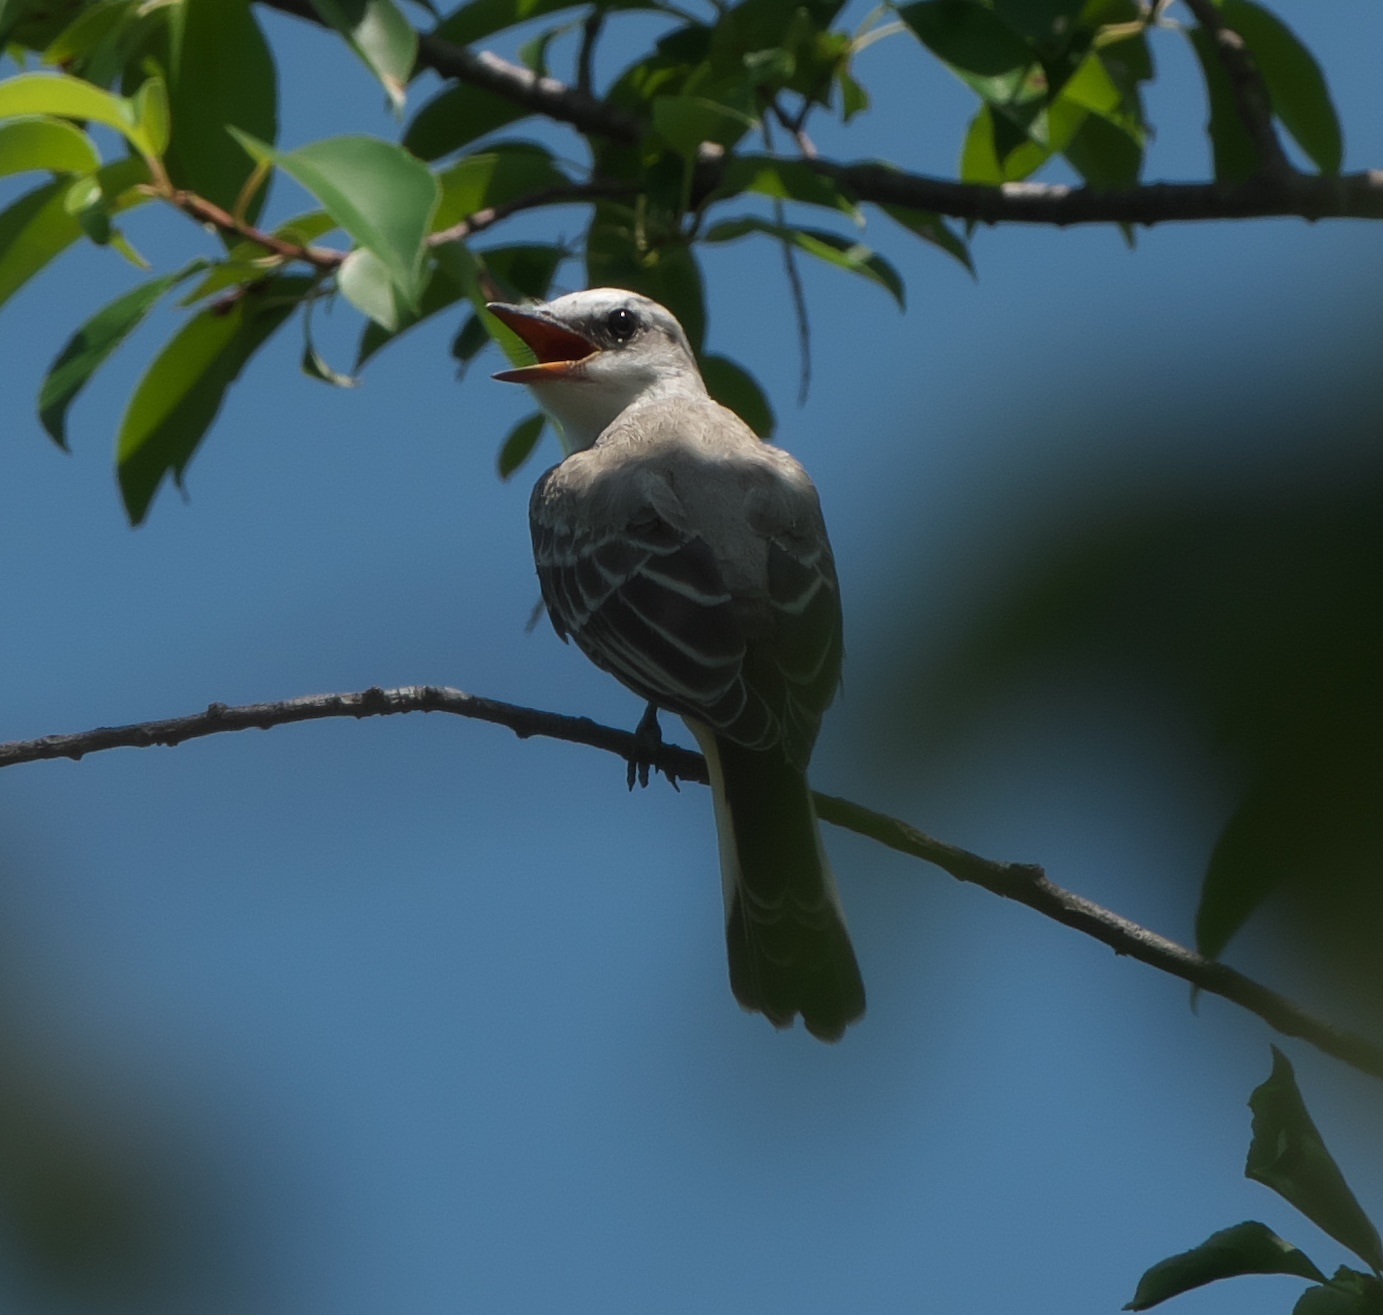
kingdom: Animalia
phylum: Chordata
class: Aves
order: Passeriformes
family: Tyrannidae
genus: Tyrannus
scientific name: Tyrannus forficatus
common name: Scissor-tailed flycatcher
